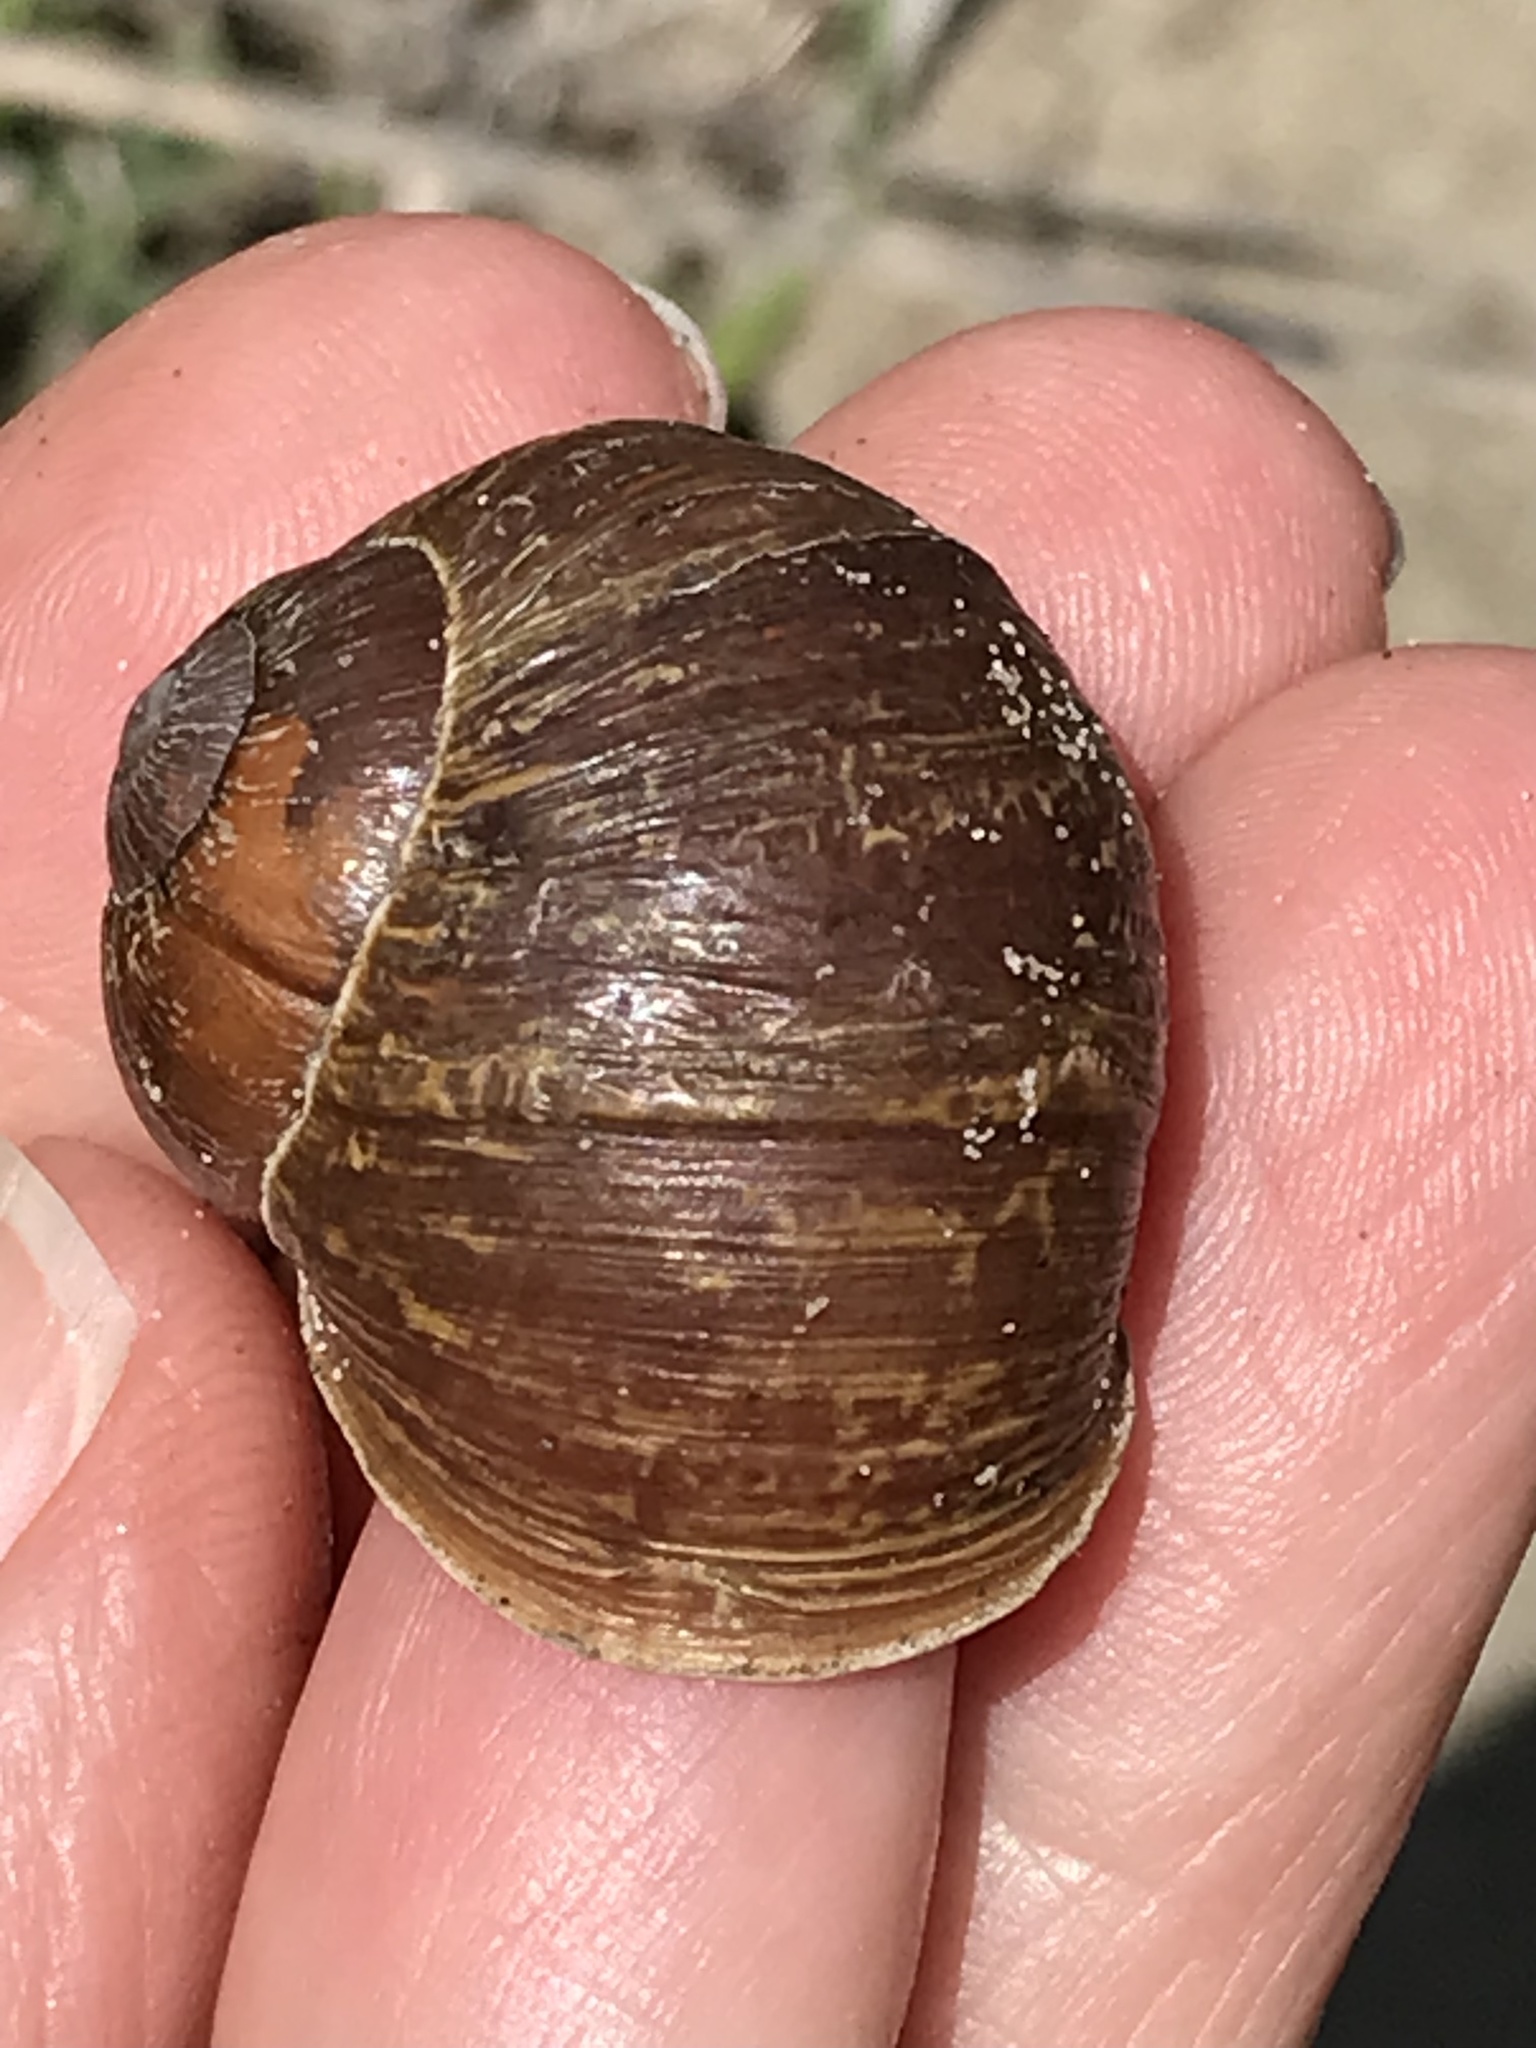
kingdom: Animalia
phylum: Mollusca
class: Gastropoda
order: Stylommatophora
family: Helicidae
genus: Cornu
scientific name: Cornu aspersum
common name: Brown garden snail
